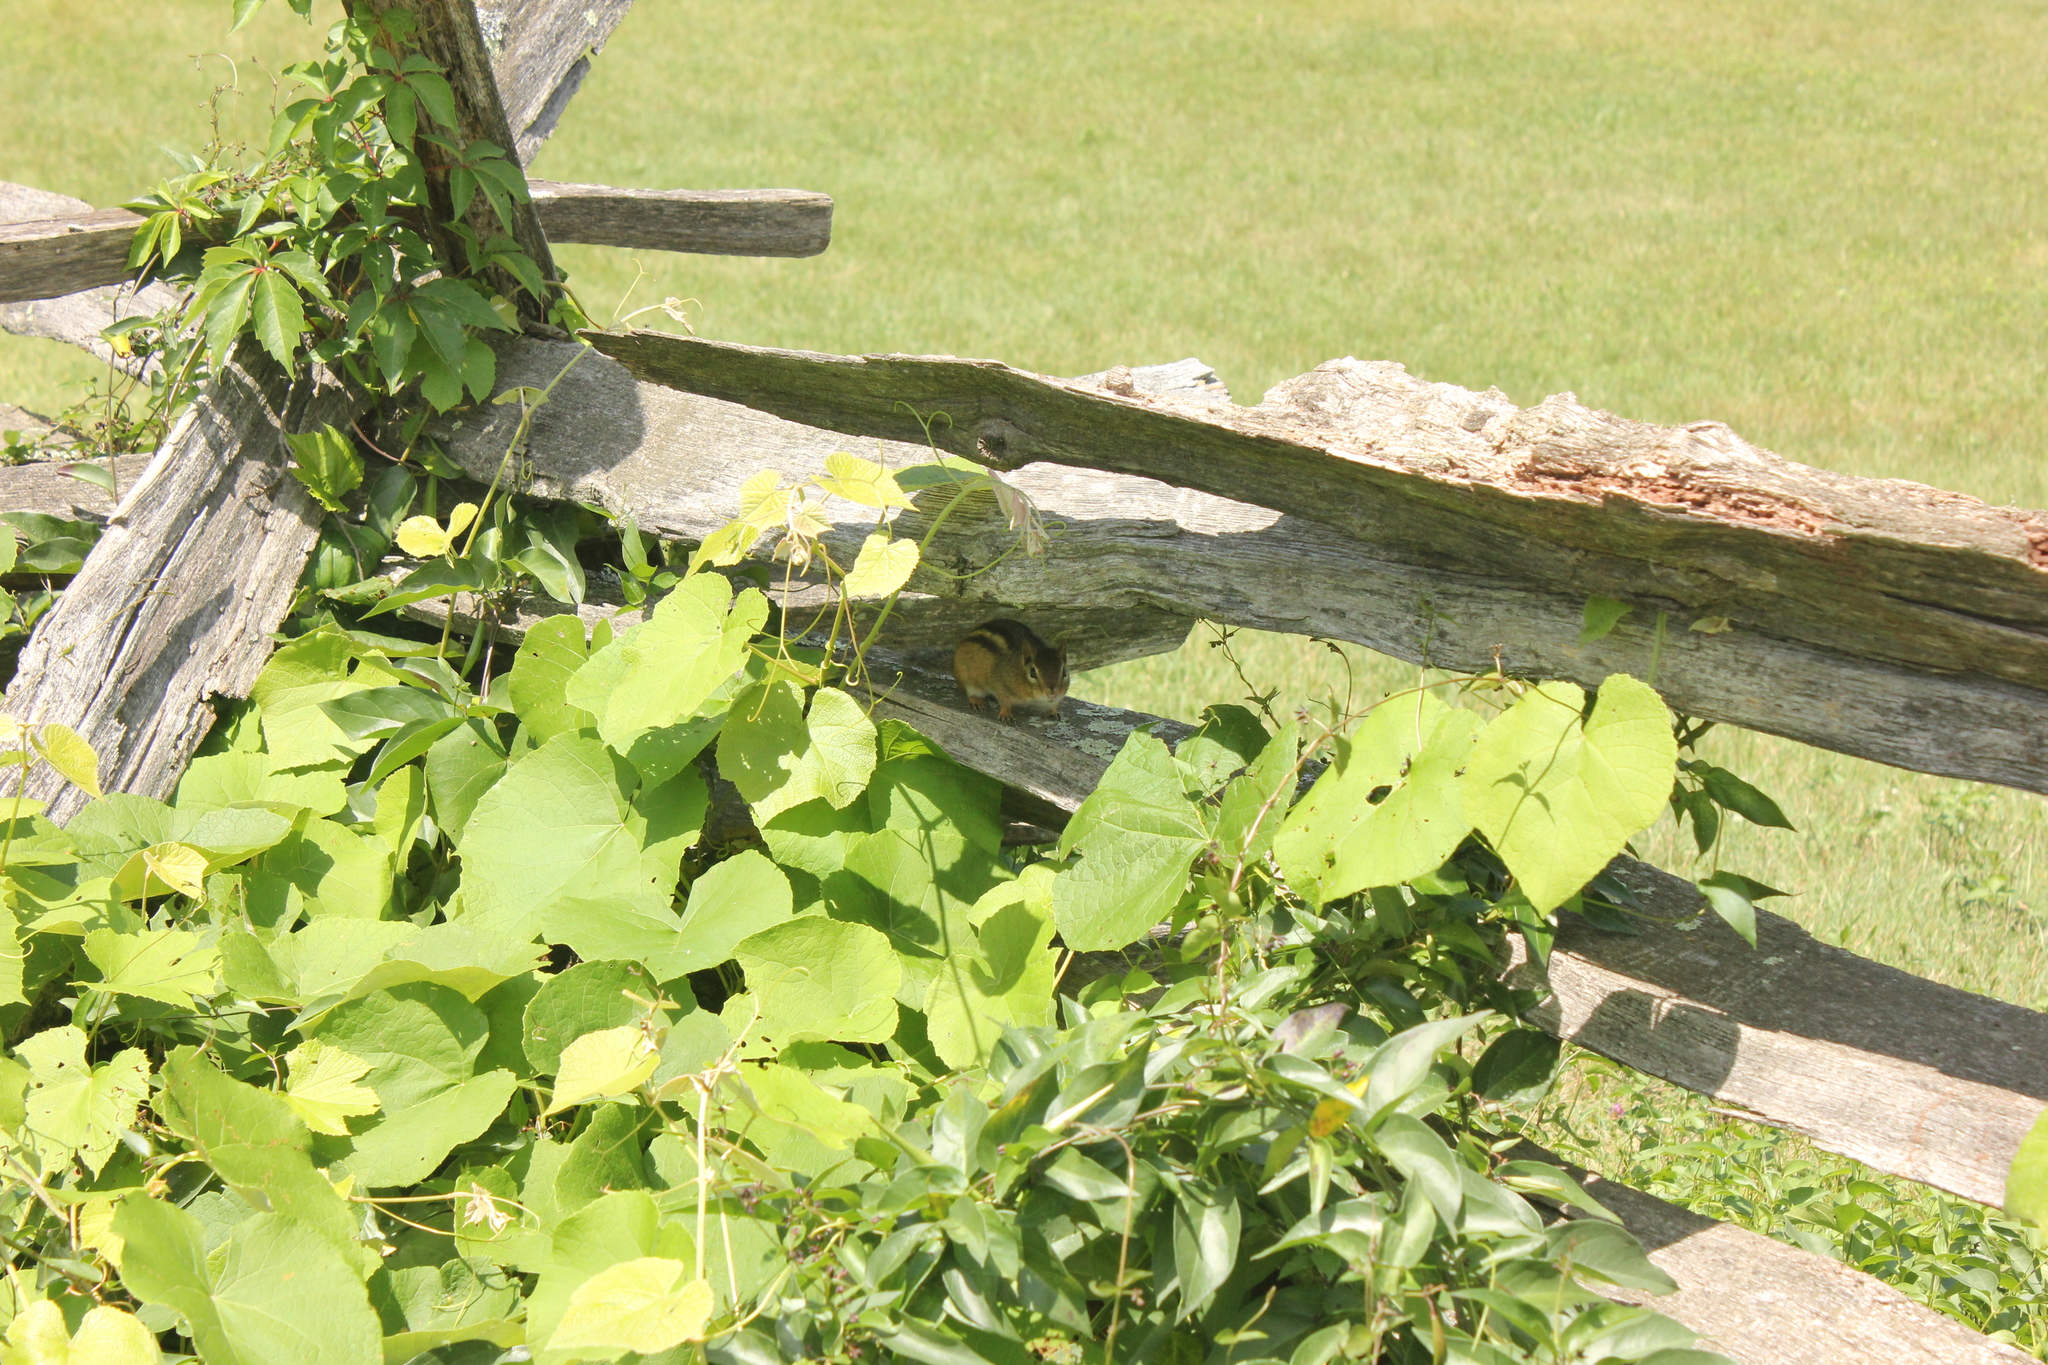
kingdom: Animalia
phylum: Chordata
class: Mammalia
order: Rodentia
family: Sciuridae
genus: Tamias
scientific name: Tamias striatus
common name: Eastern chipmunk
